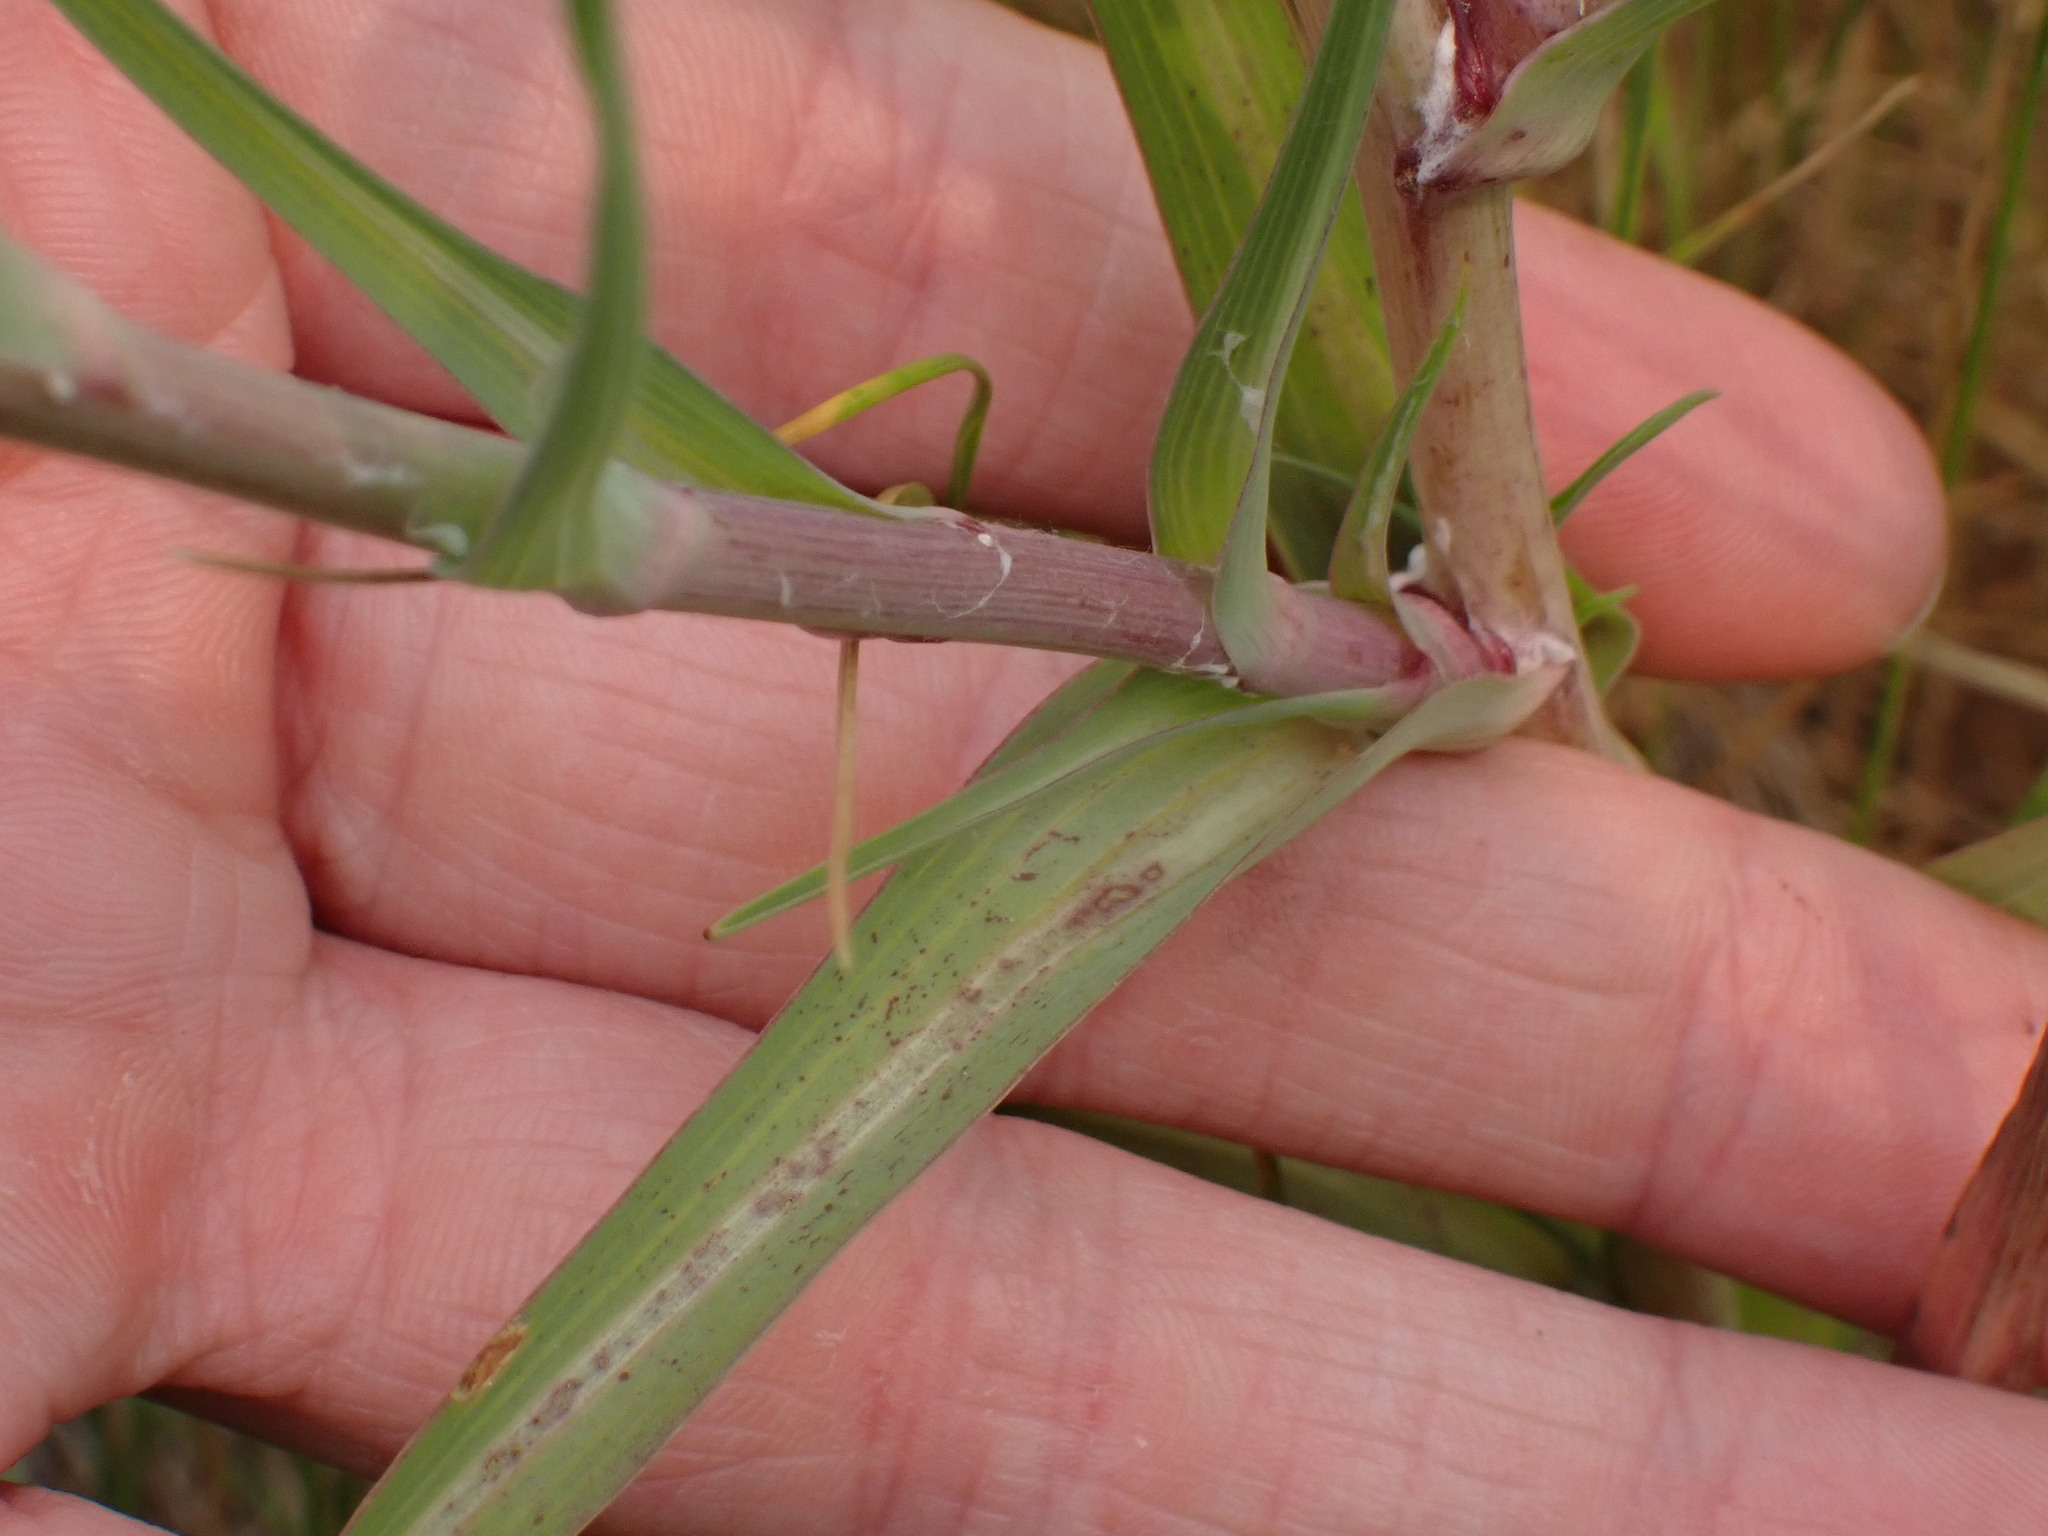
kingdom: Plantae
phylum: Tracheophyta
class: Magnoliopsida
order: Asterales
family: Asteraceae
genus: Tragopogon
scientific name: Tragopogon dubius
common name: Yellow salsify
